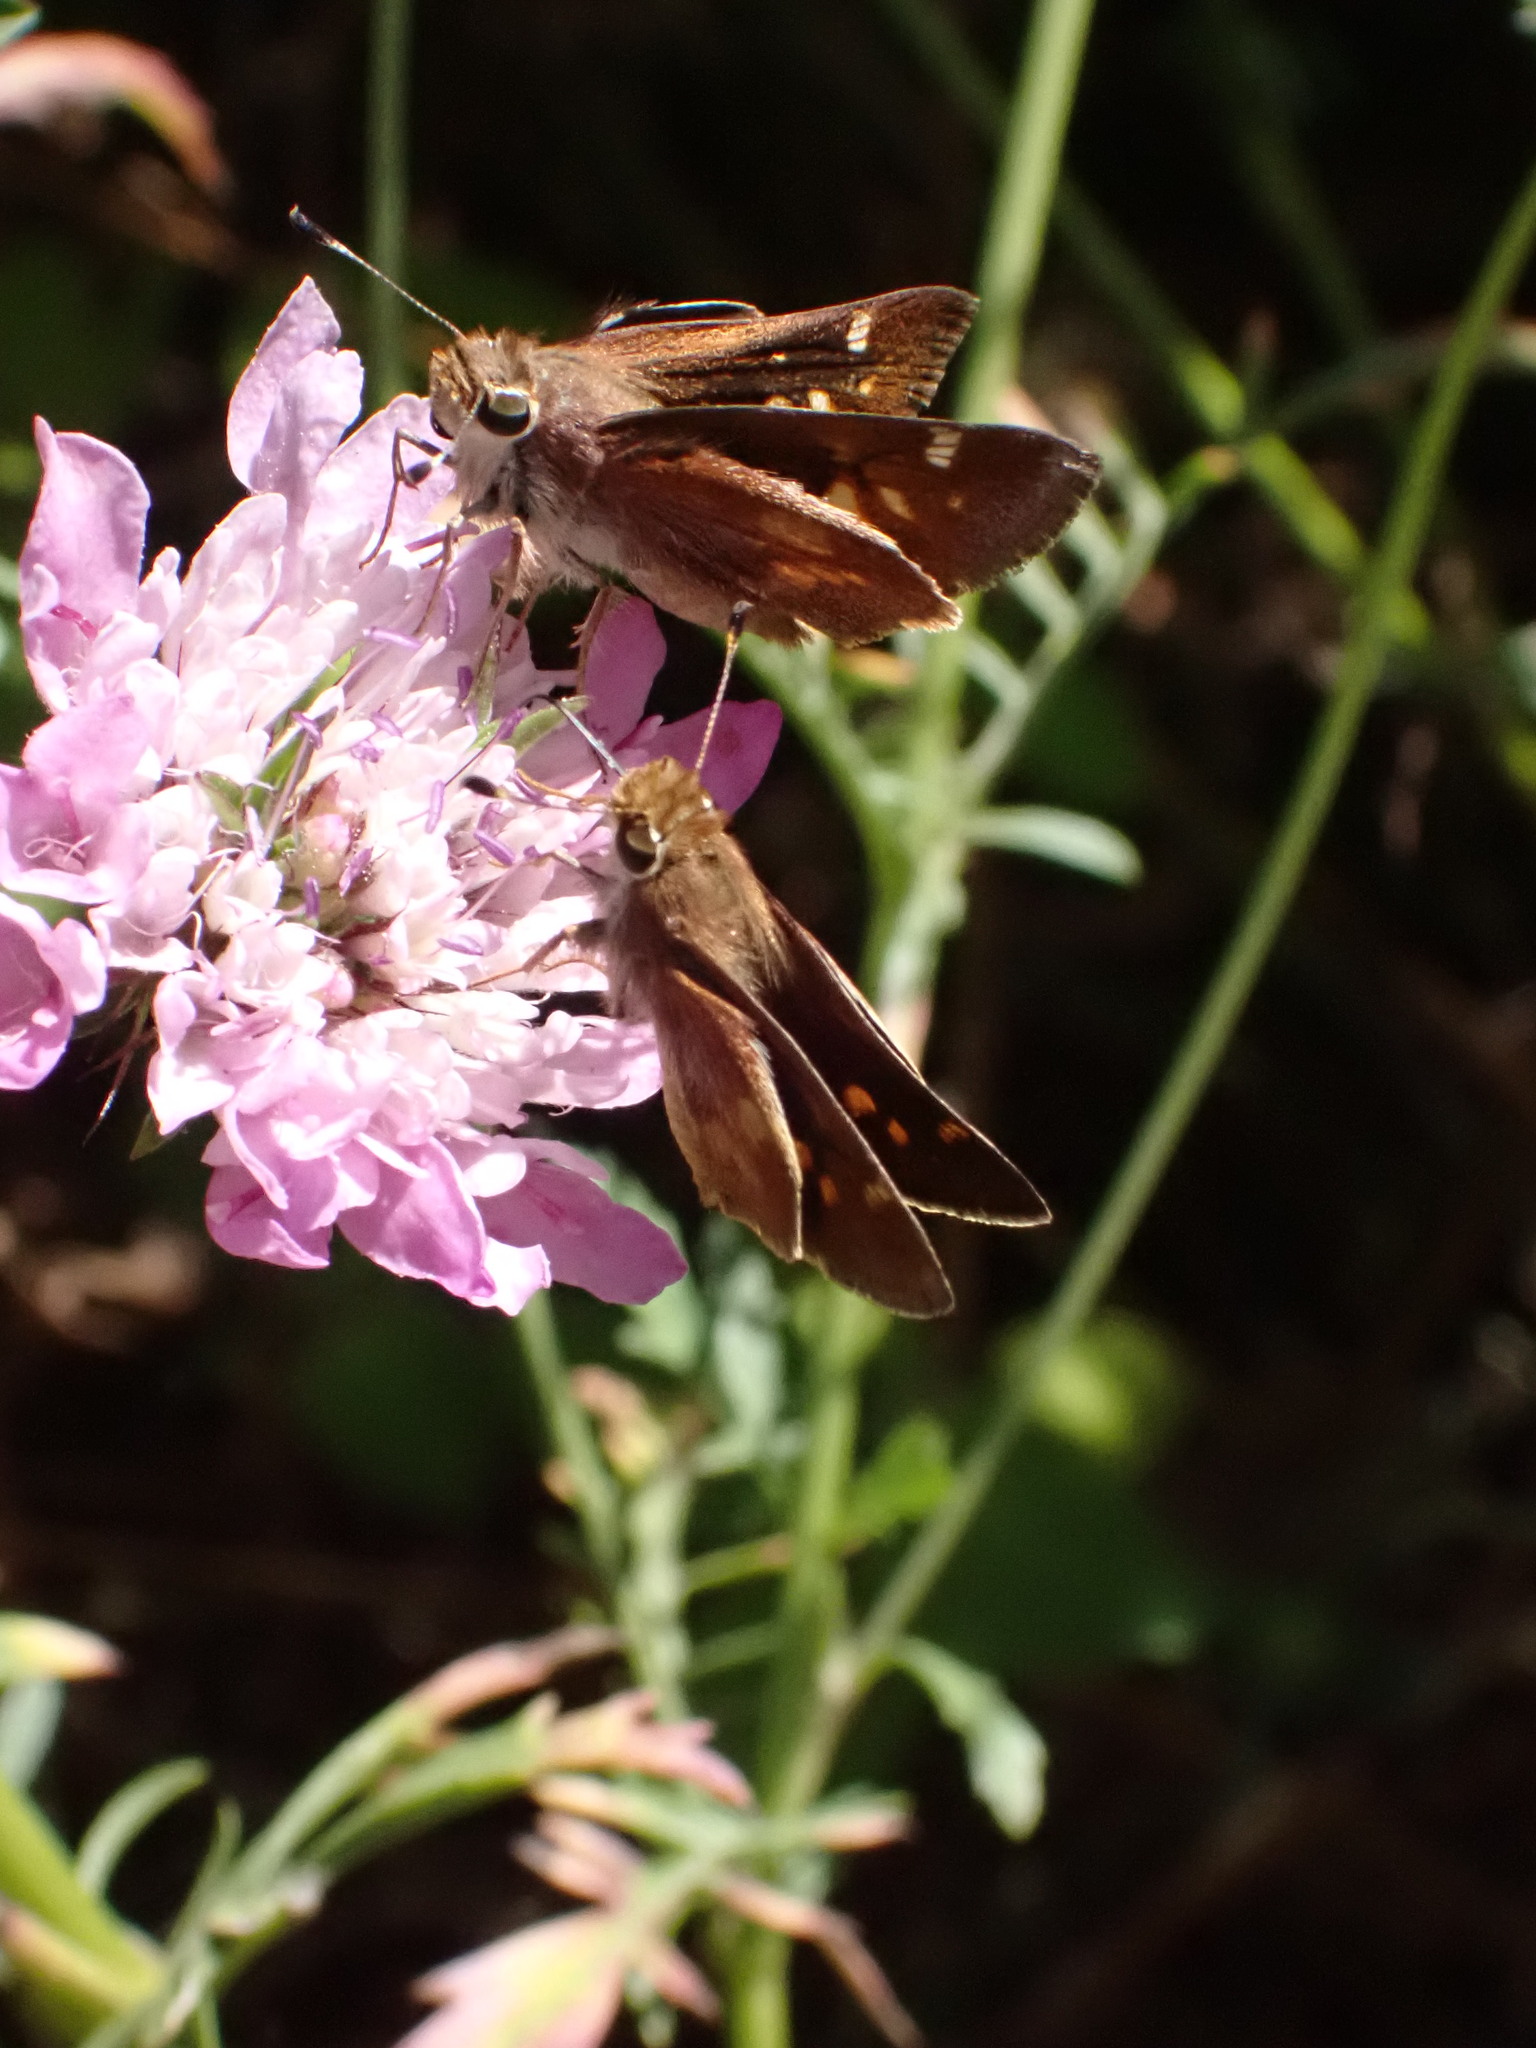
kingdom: Animalia
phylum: Arthropoda
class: Insecta
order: Lepidoptera
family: Hesperiidae
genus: Lon
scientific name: Lon melane
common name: Umber skipper
